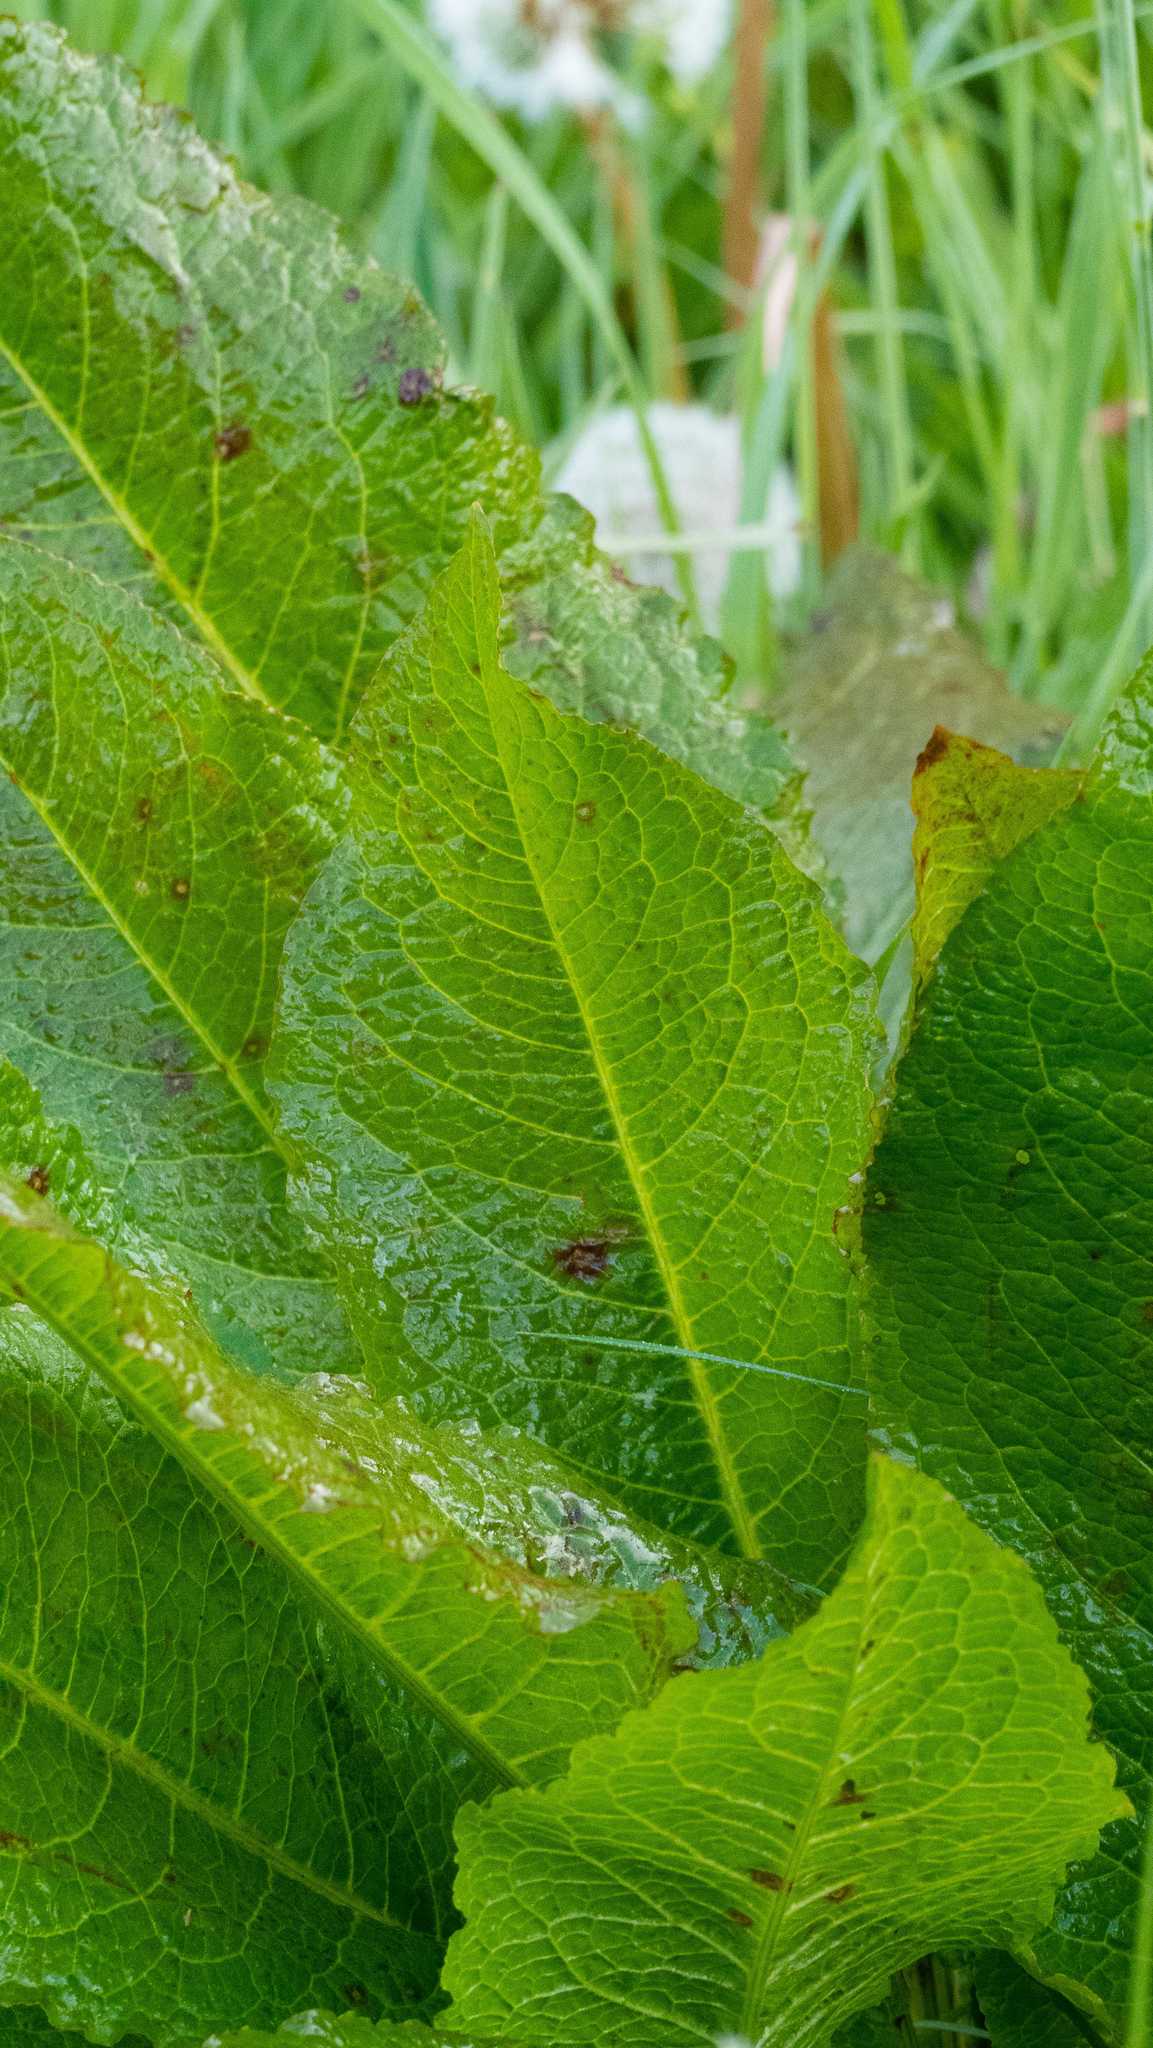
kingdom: Plantae
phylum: Tracheophyta
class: Magnoliopsida
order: Brassicales
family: Brassicaceae
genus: Armoracia
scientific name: Armoracia rusticana
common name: Horseradish
